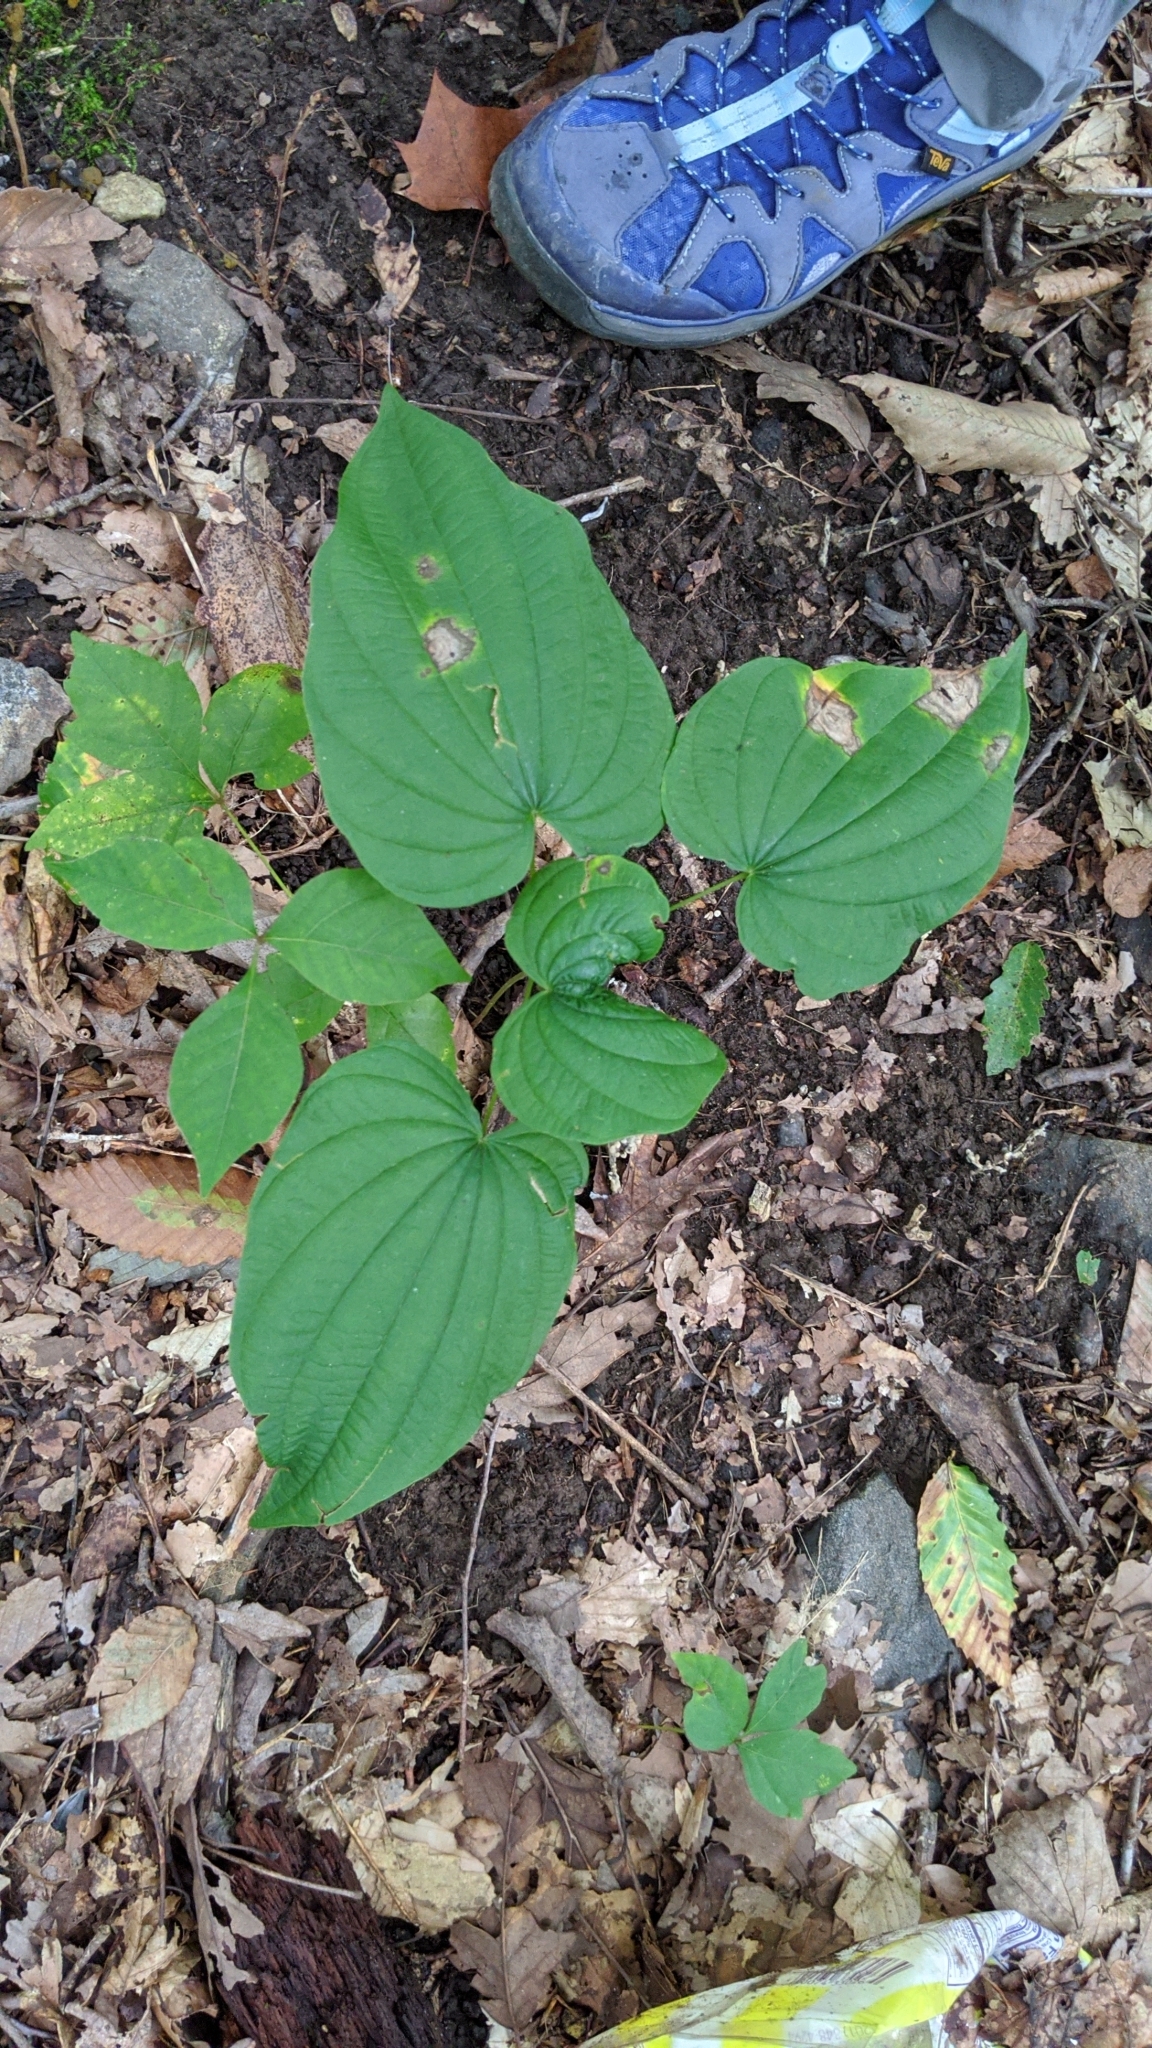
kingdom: Plantae
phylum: Tracheophyta
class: Liliopsida
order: Dioscoreales
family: Dioscoreaceae
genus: Dioscorea
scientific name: Dioscorea villosa
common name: Wild yam
